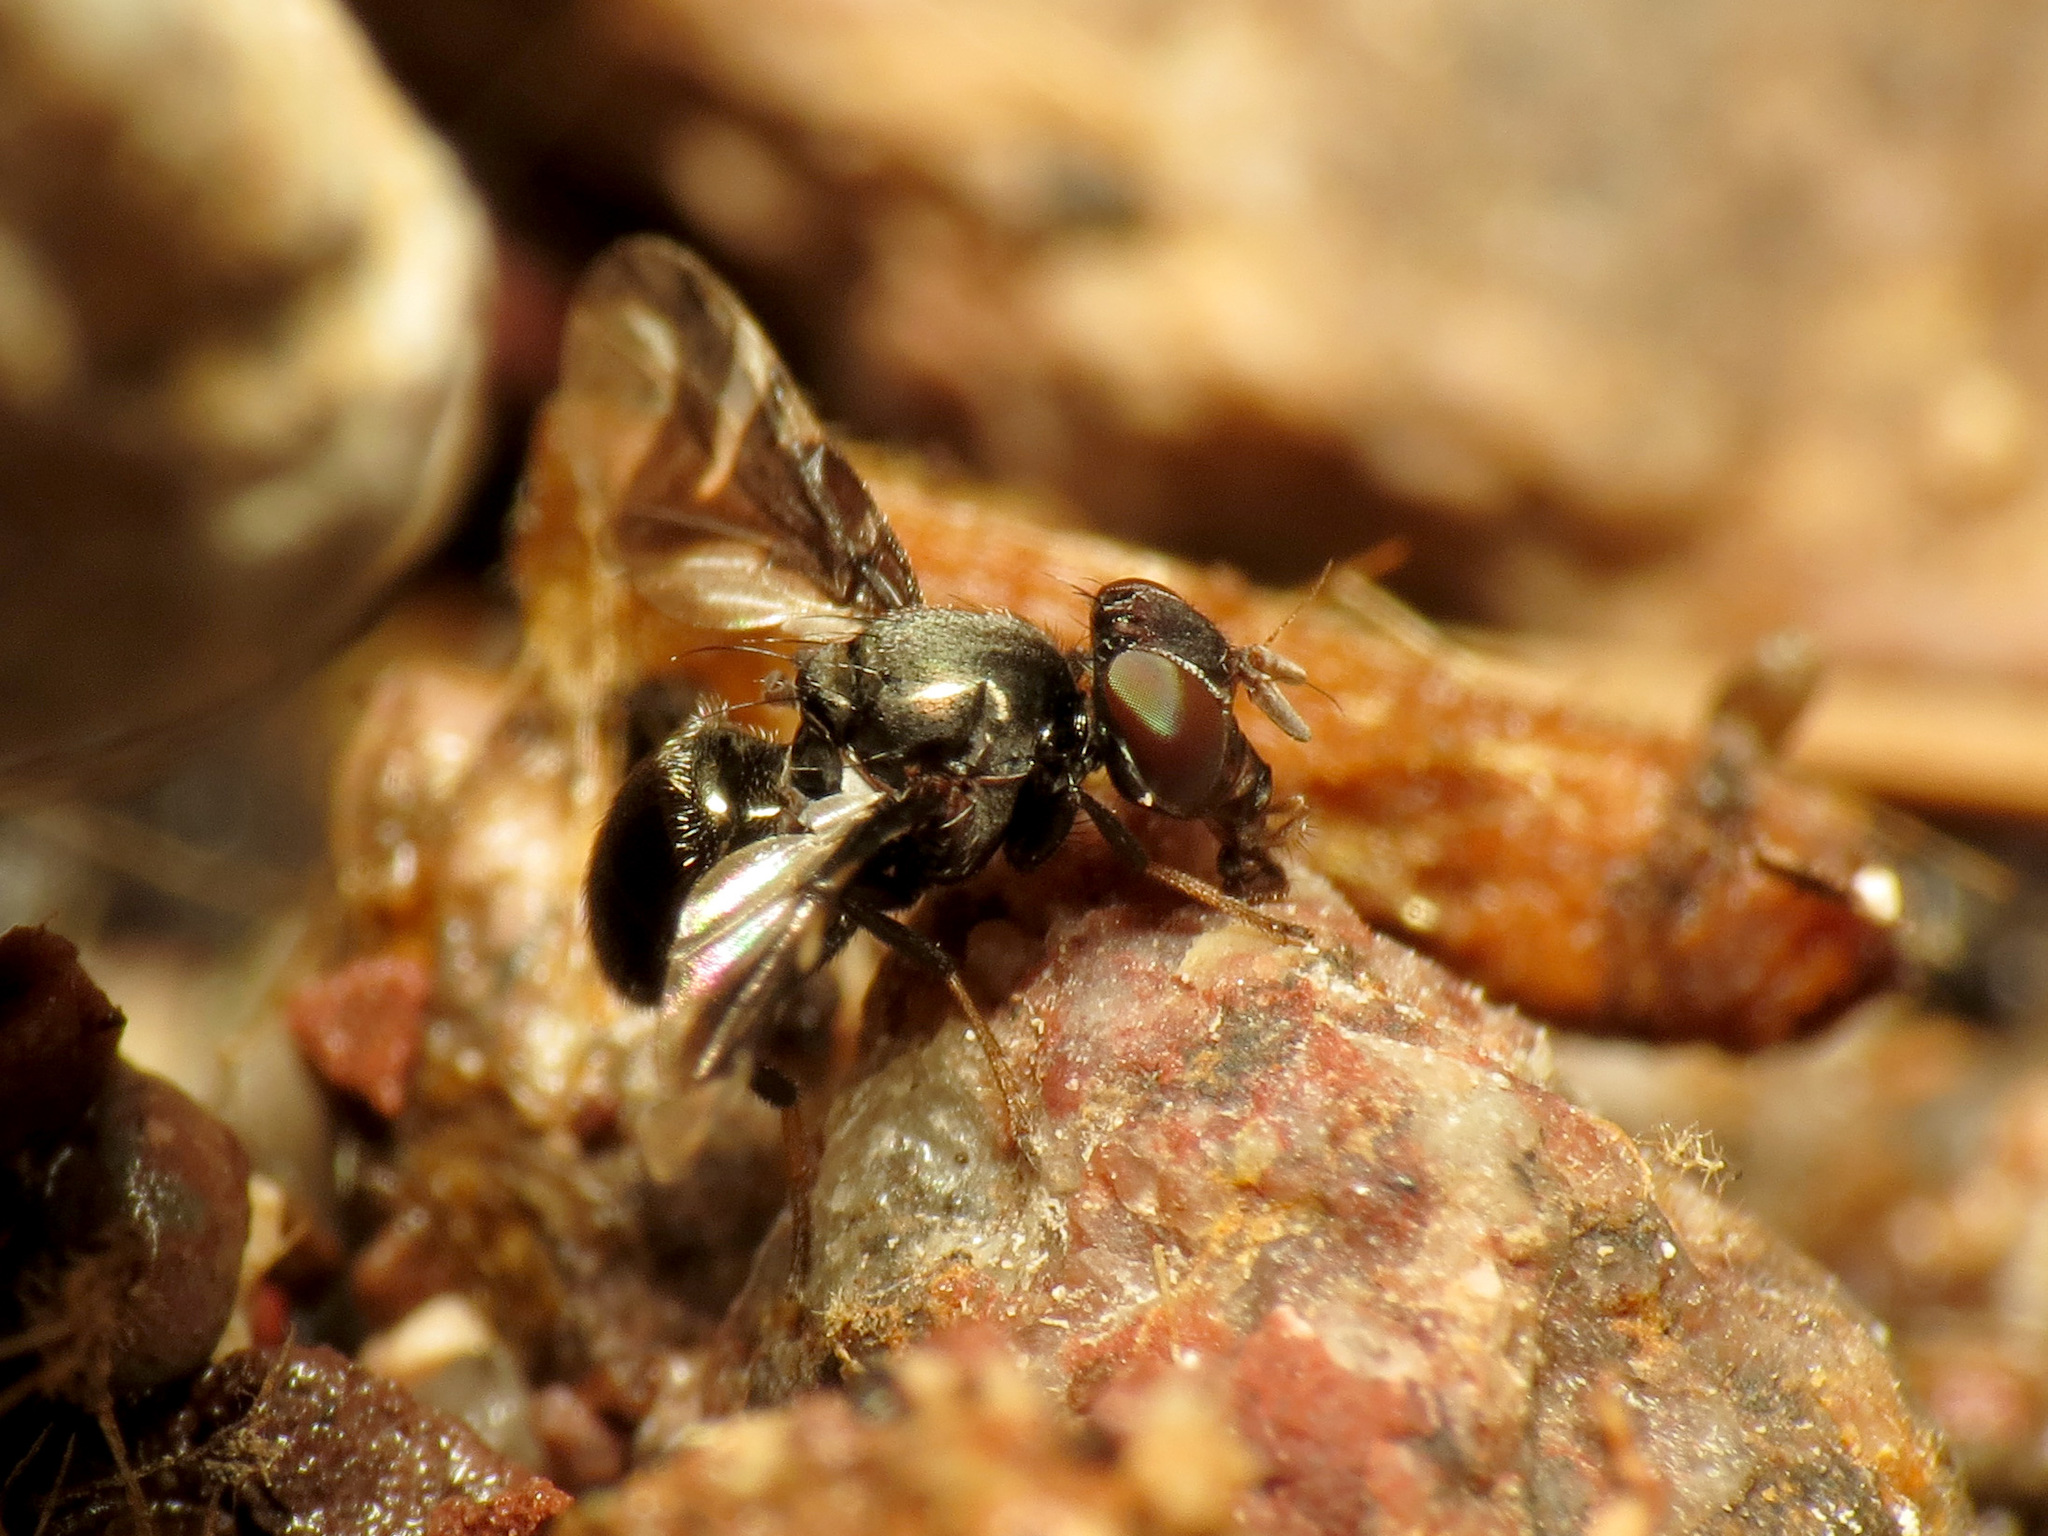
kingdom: Animalia
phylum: Arthropoda
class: Insecta
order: Diptera
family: Platystomatidae
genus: Rivellia
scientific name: Rivellia wulpiana
